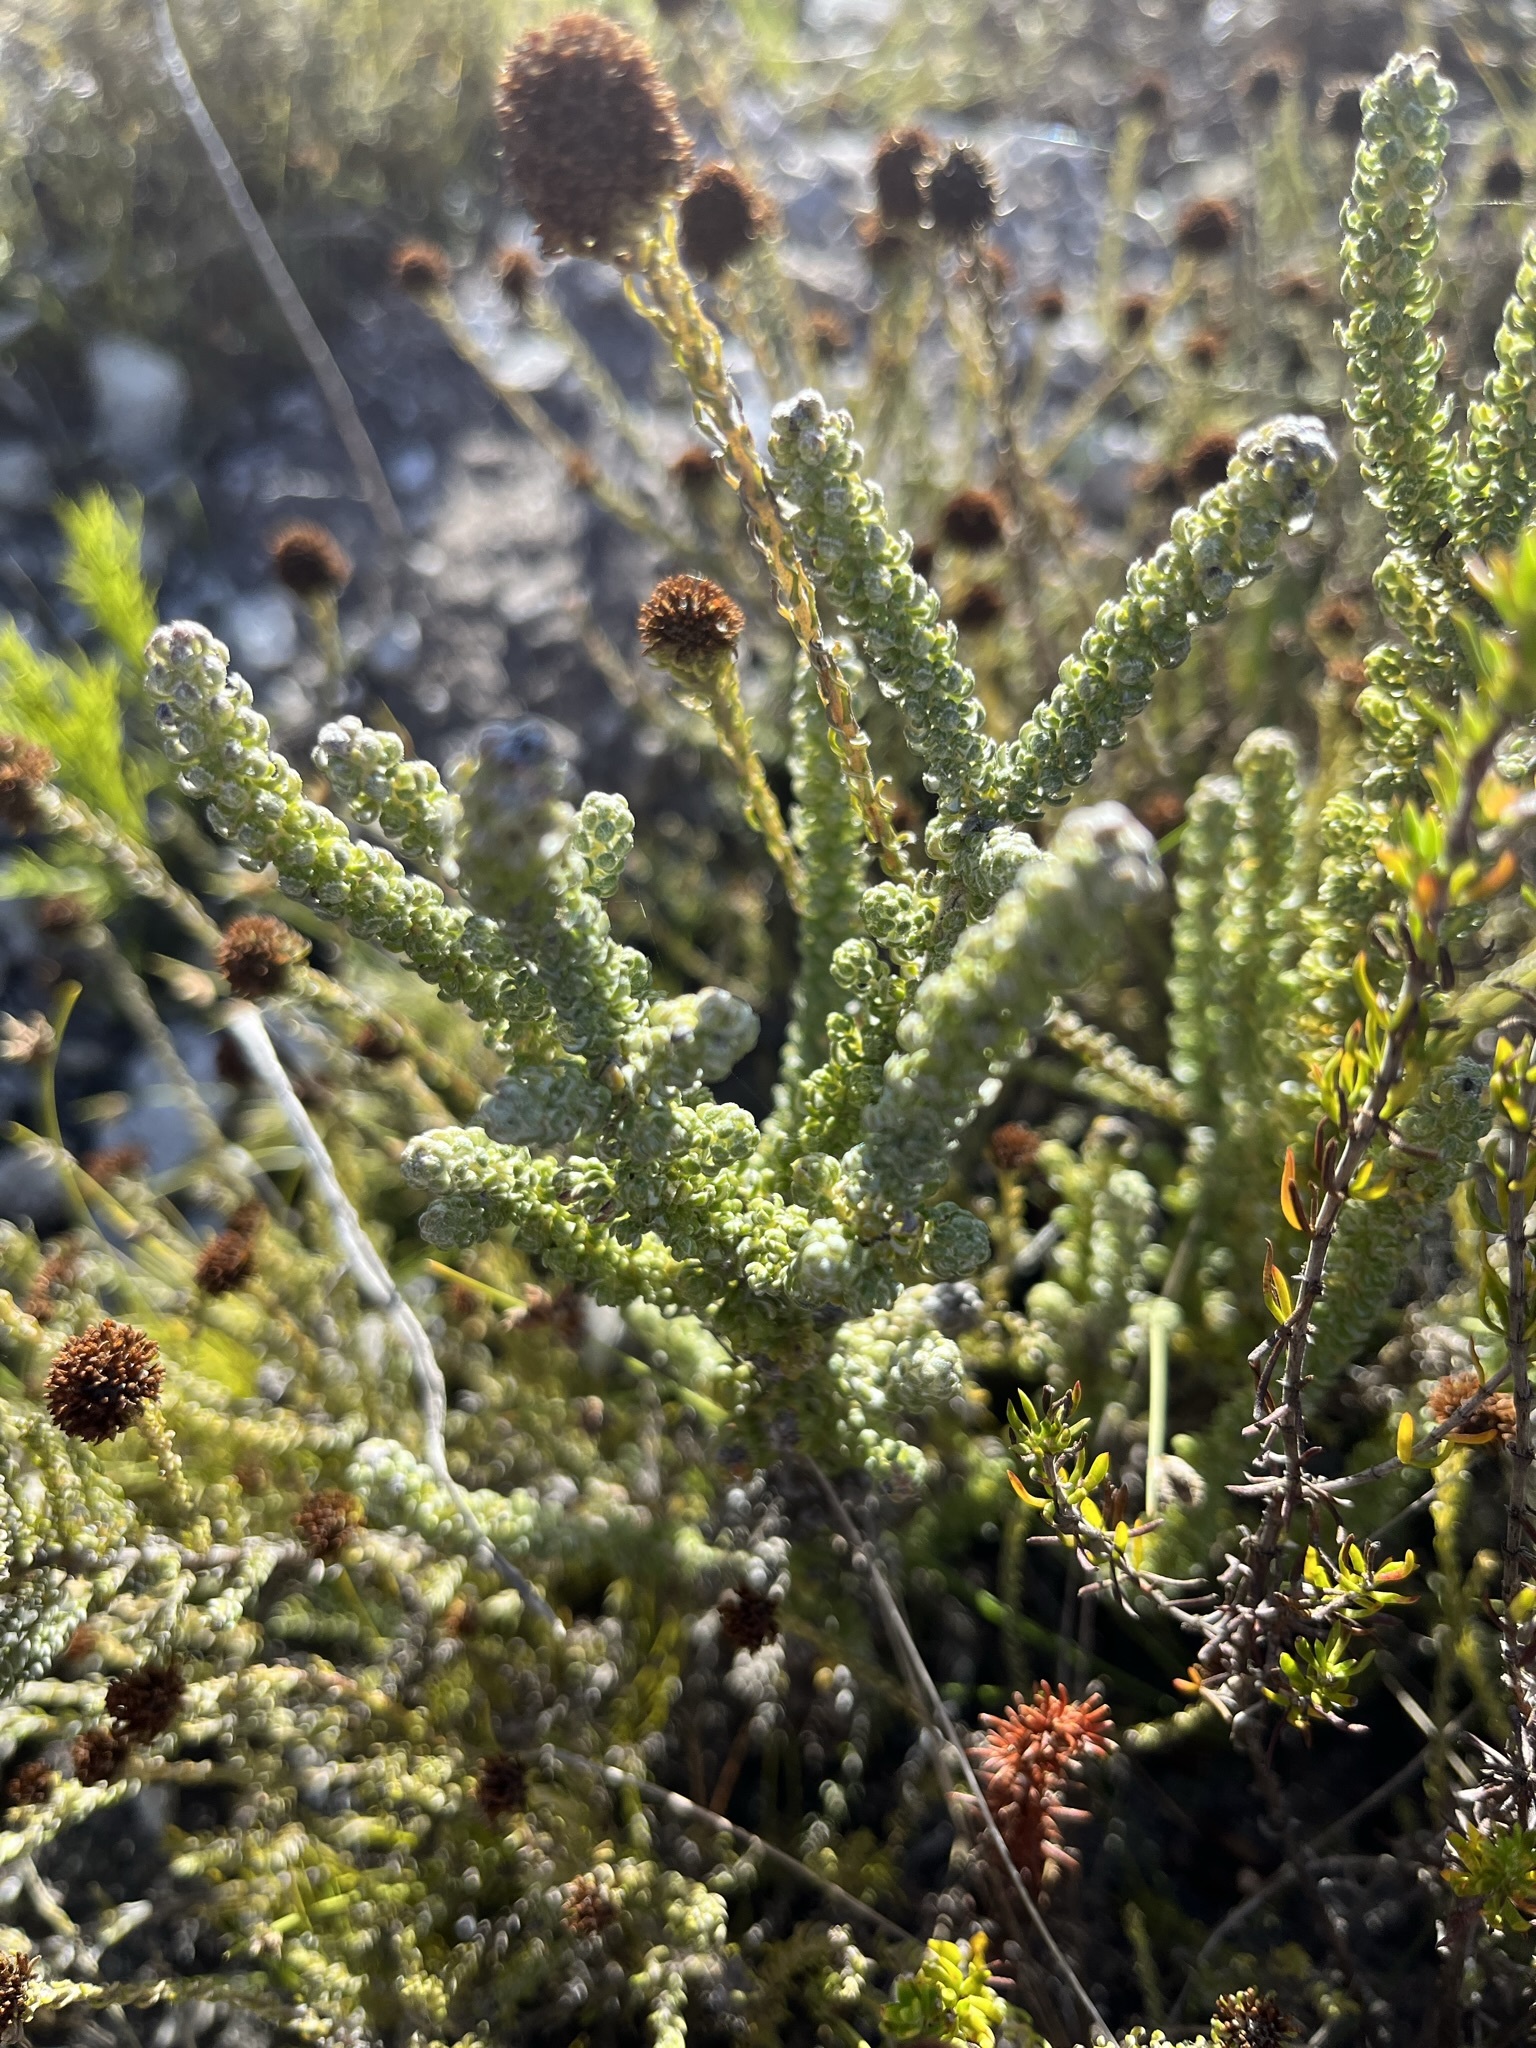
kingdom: Plantae
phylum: Tracheophyta
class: Magnoliopsida
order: Asterales
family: Asteraceae
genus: Metalasia
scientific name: Metalasia calcicola
